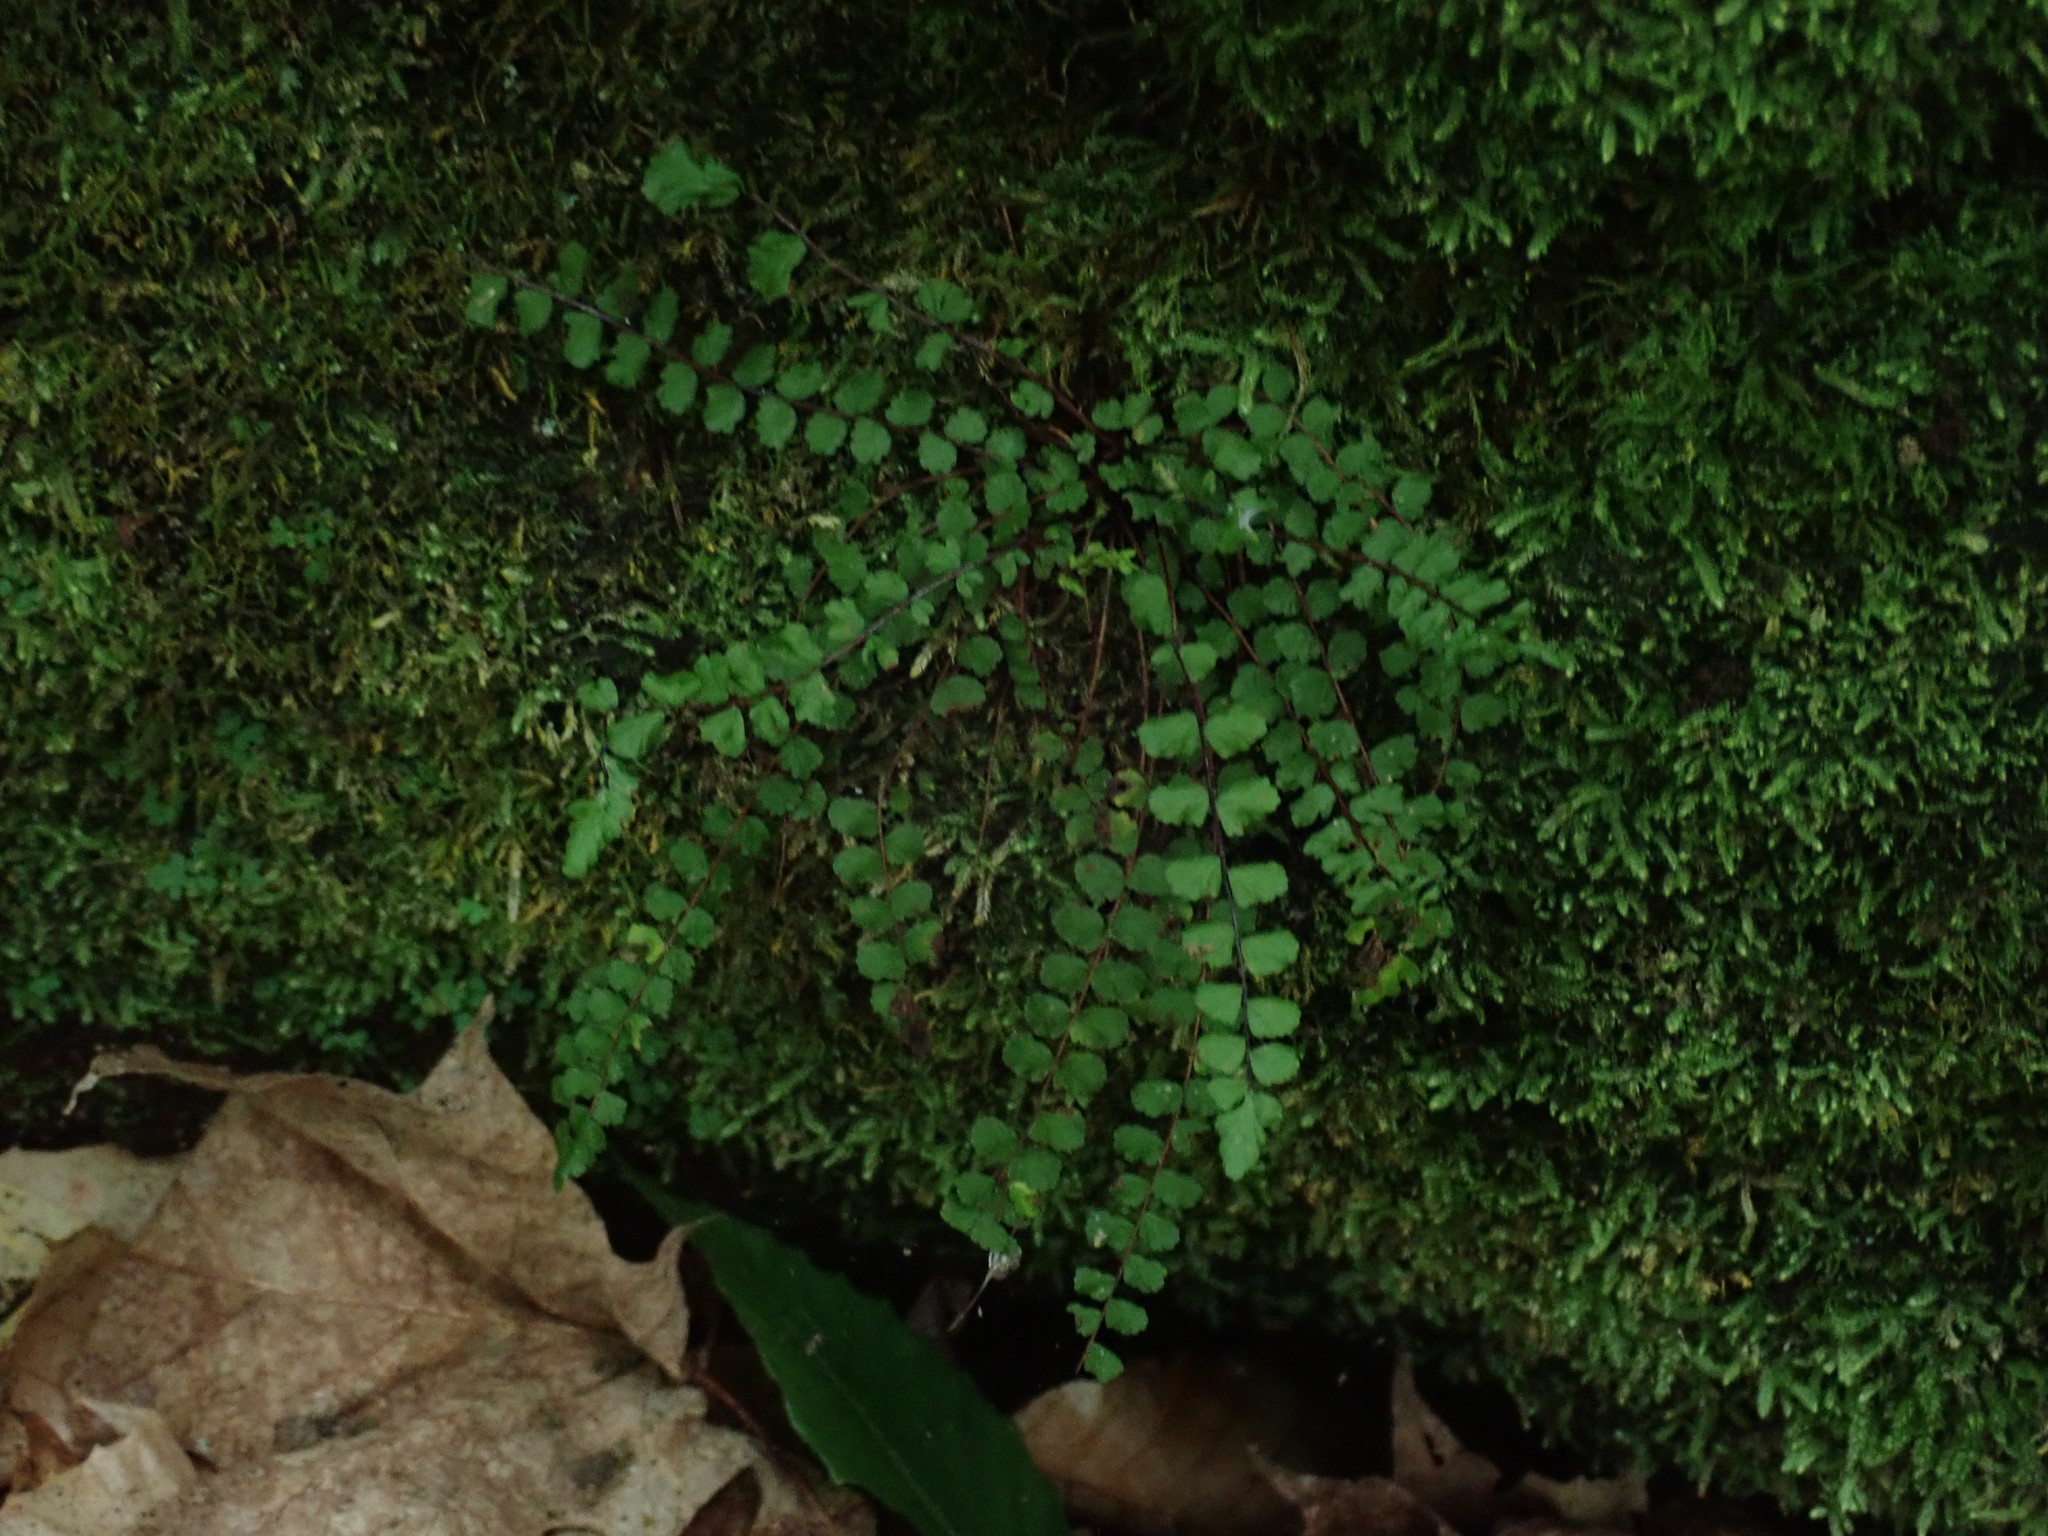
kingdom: Plantae
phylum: Tracheophyta
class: Polypodiopsida
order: Polypodiales
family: Aspleniaceae
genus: Asplenium
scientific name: Asplenium trichomanes
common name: Maidenhair spleenwort
